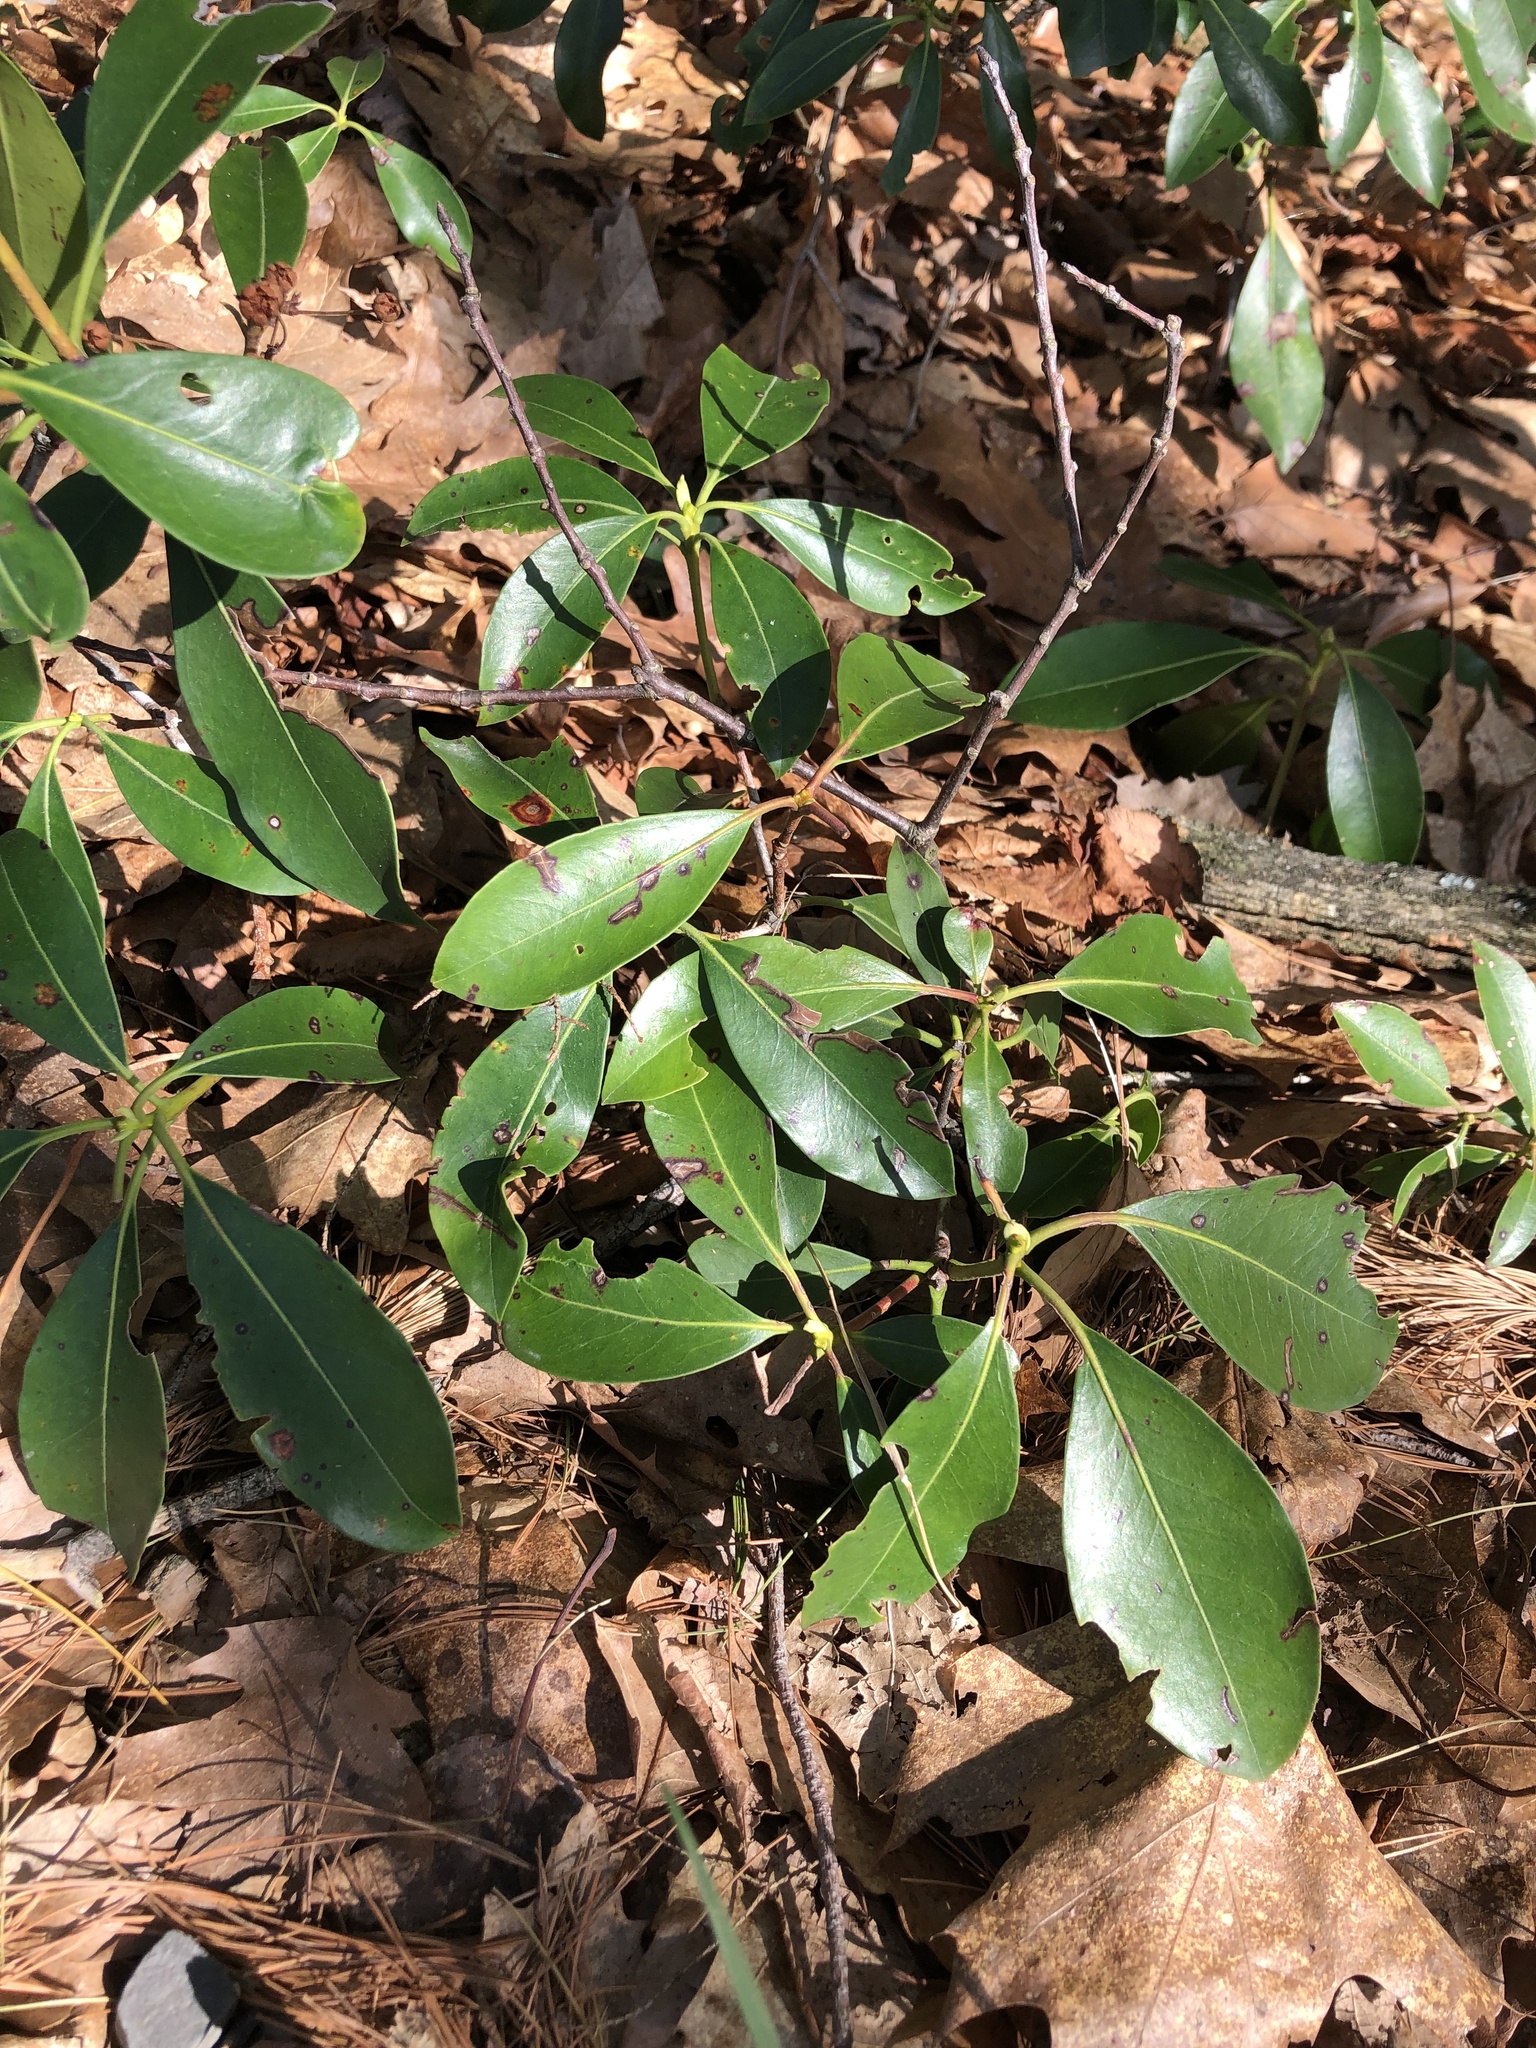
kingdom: Plantae
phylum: Tracheophyta
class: Magnoliopsida
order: Ericales
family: Ericaceae
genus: Kalmia
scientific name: Kalmia latifolia
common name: Mountain-laurel
